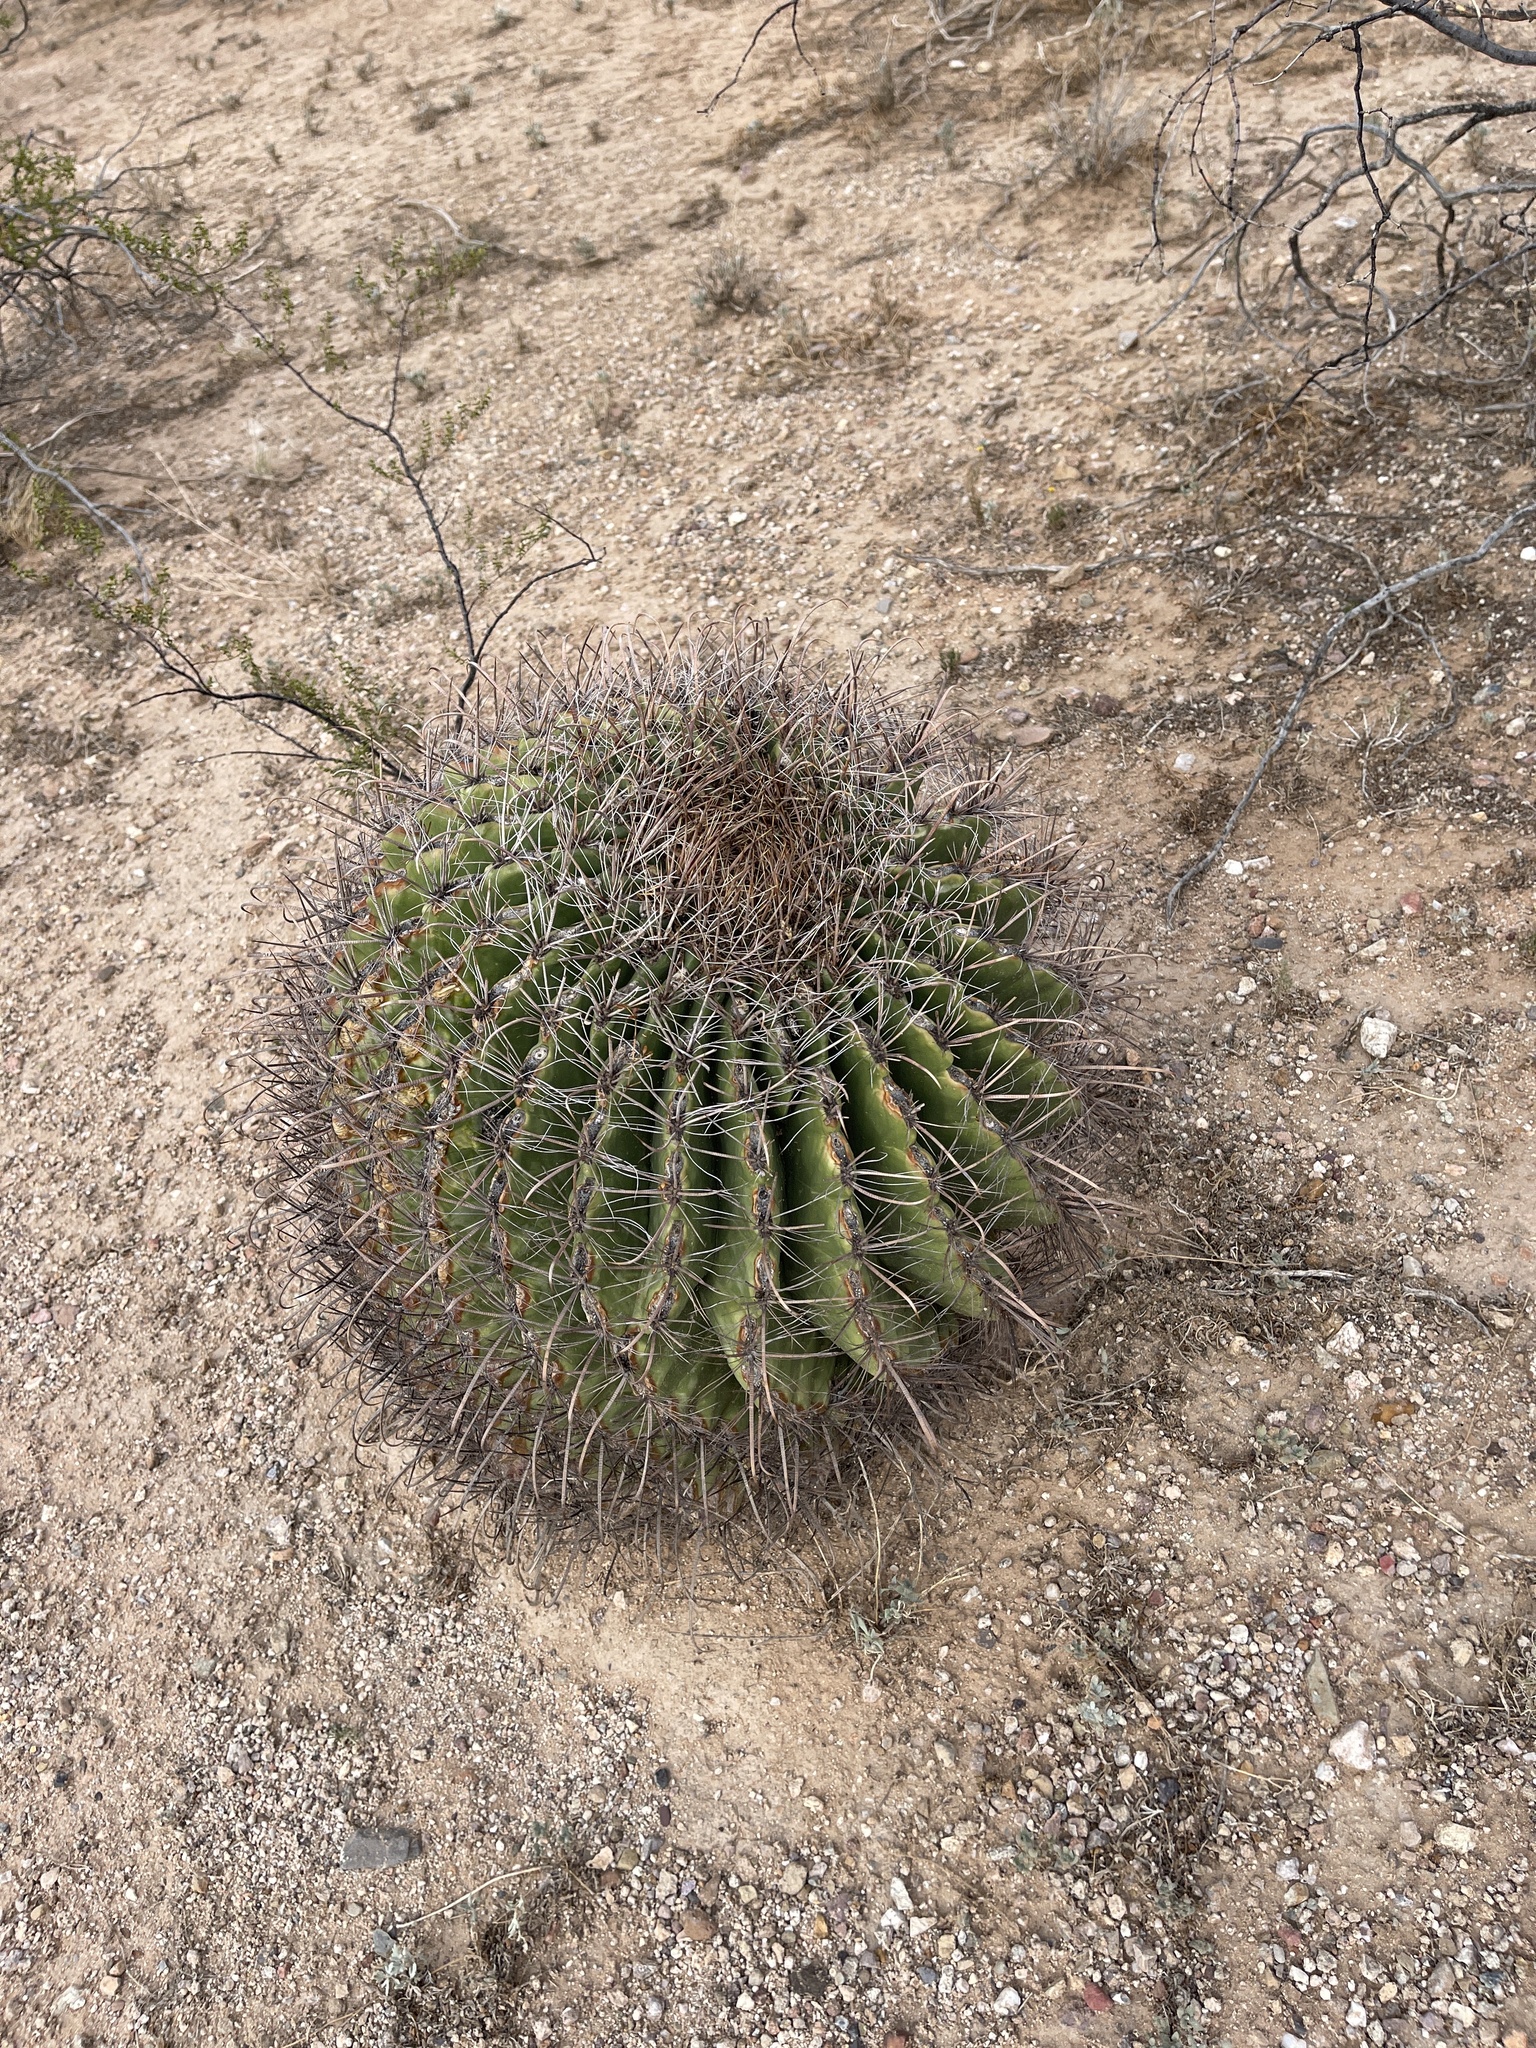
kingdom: Plantae
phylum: Tracheophyta
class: Magnoliopsida
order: Caryophyllales
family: Cactaceae
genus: Ferocactus
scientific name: Ferocactus wislizeni
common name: Candy barrel cactus
